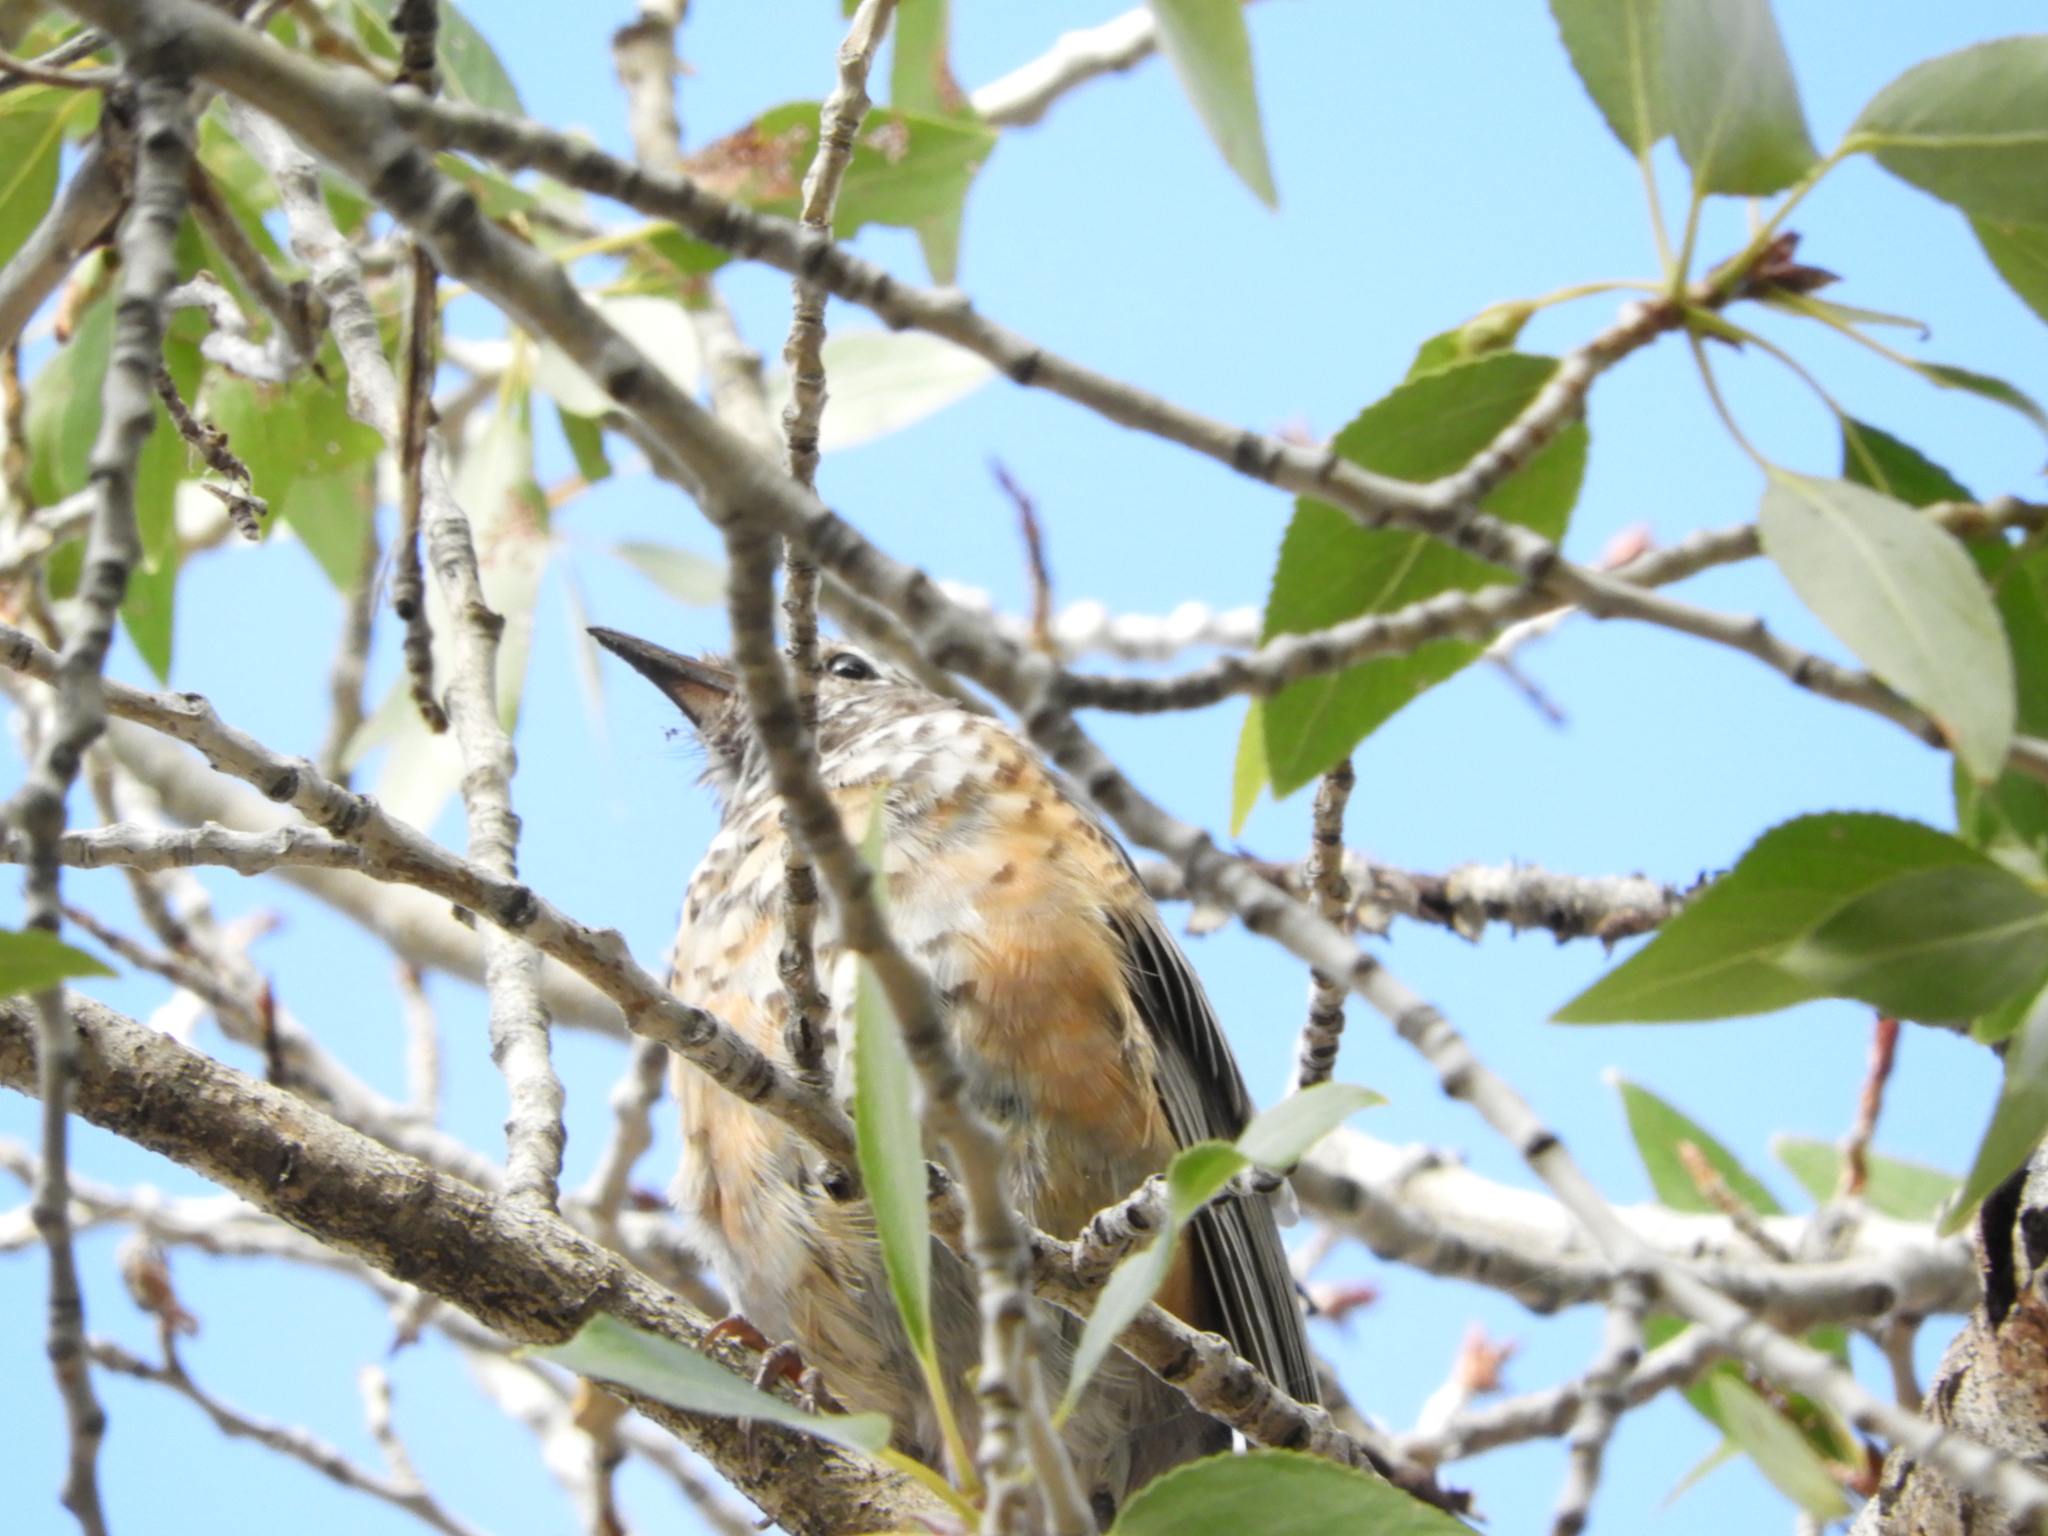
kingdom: Animalia
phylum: Chordata
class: Aves
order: Passeriformes
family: Turdidae
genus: Turdus
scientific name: Turdus migratorius
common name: American robin
